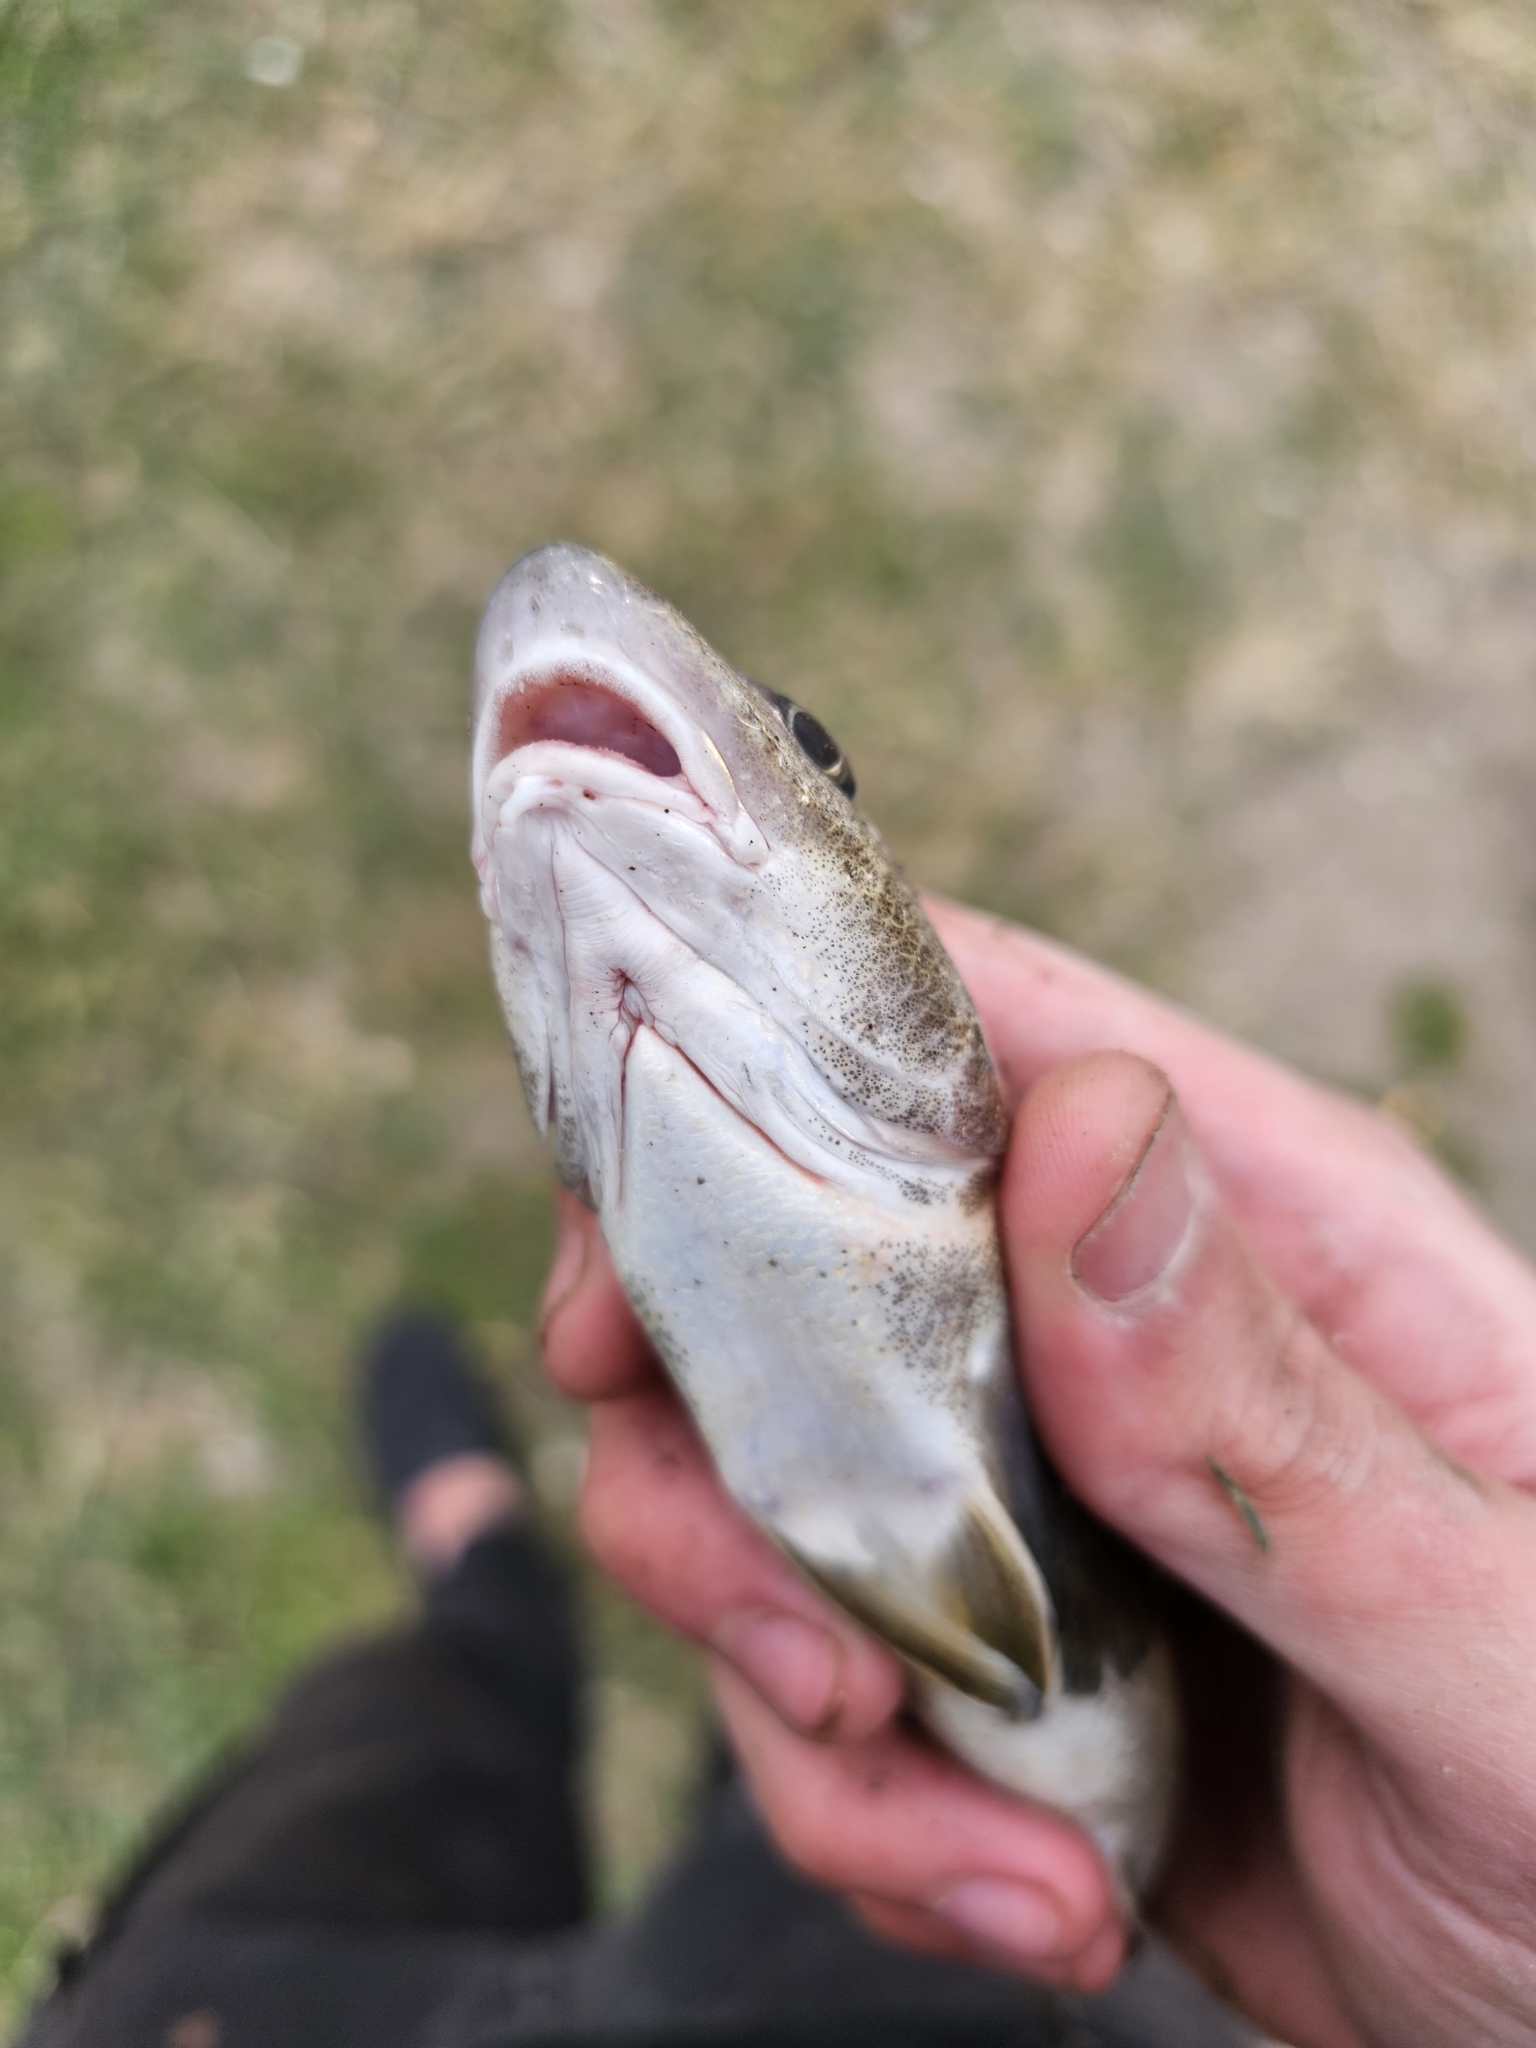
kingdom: Animalia
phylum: Chordata
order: Perciformes
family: Sciaenidae
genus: Menticirrhus
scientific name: Menticirrhus americanus
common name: Southern kingfish
